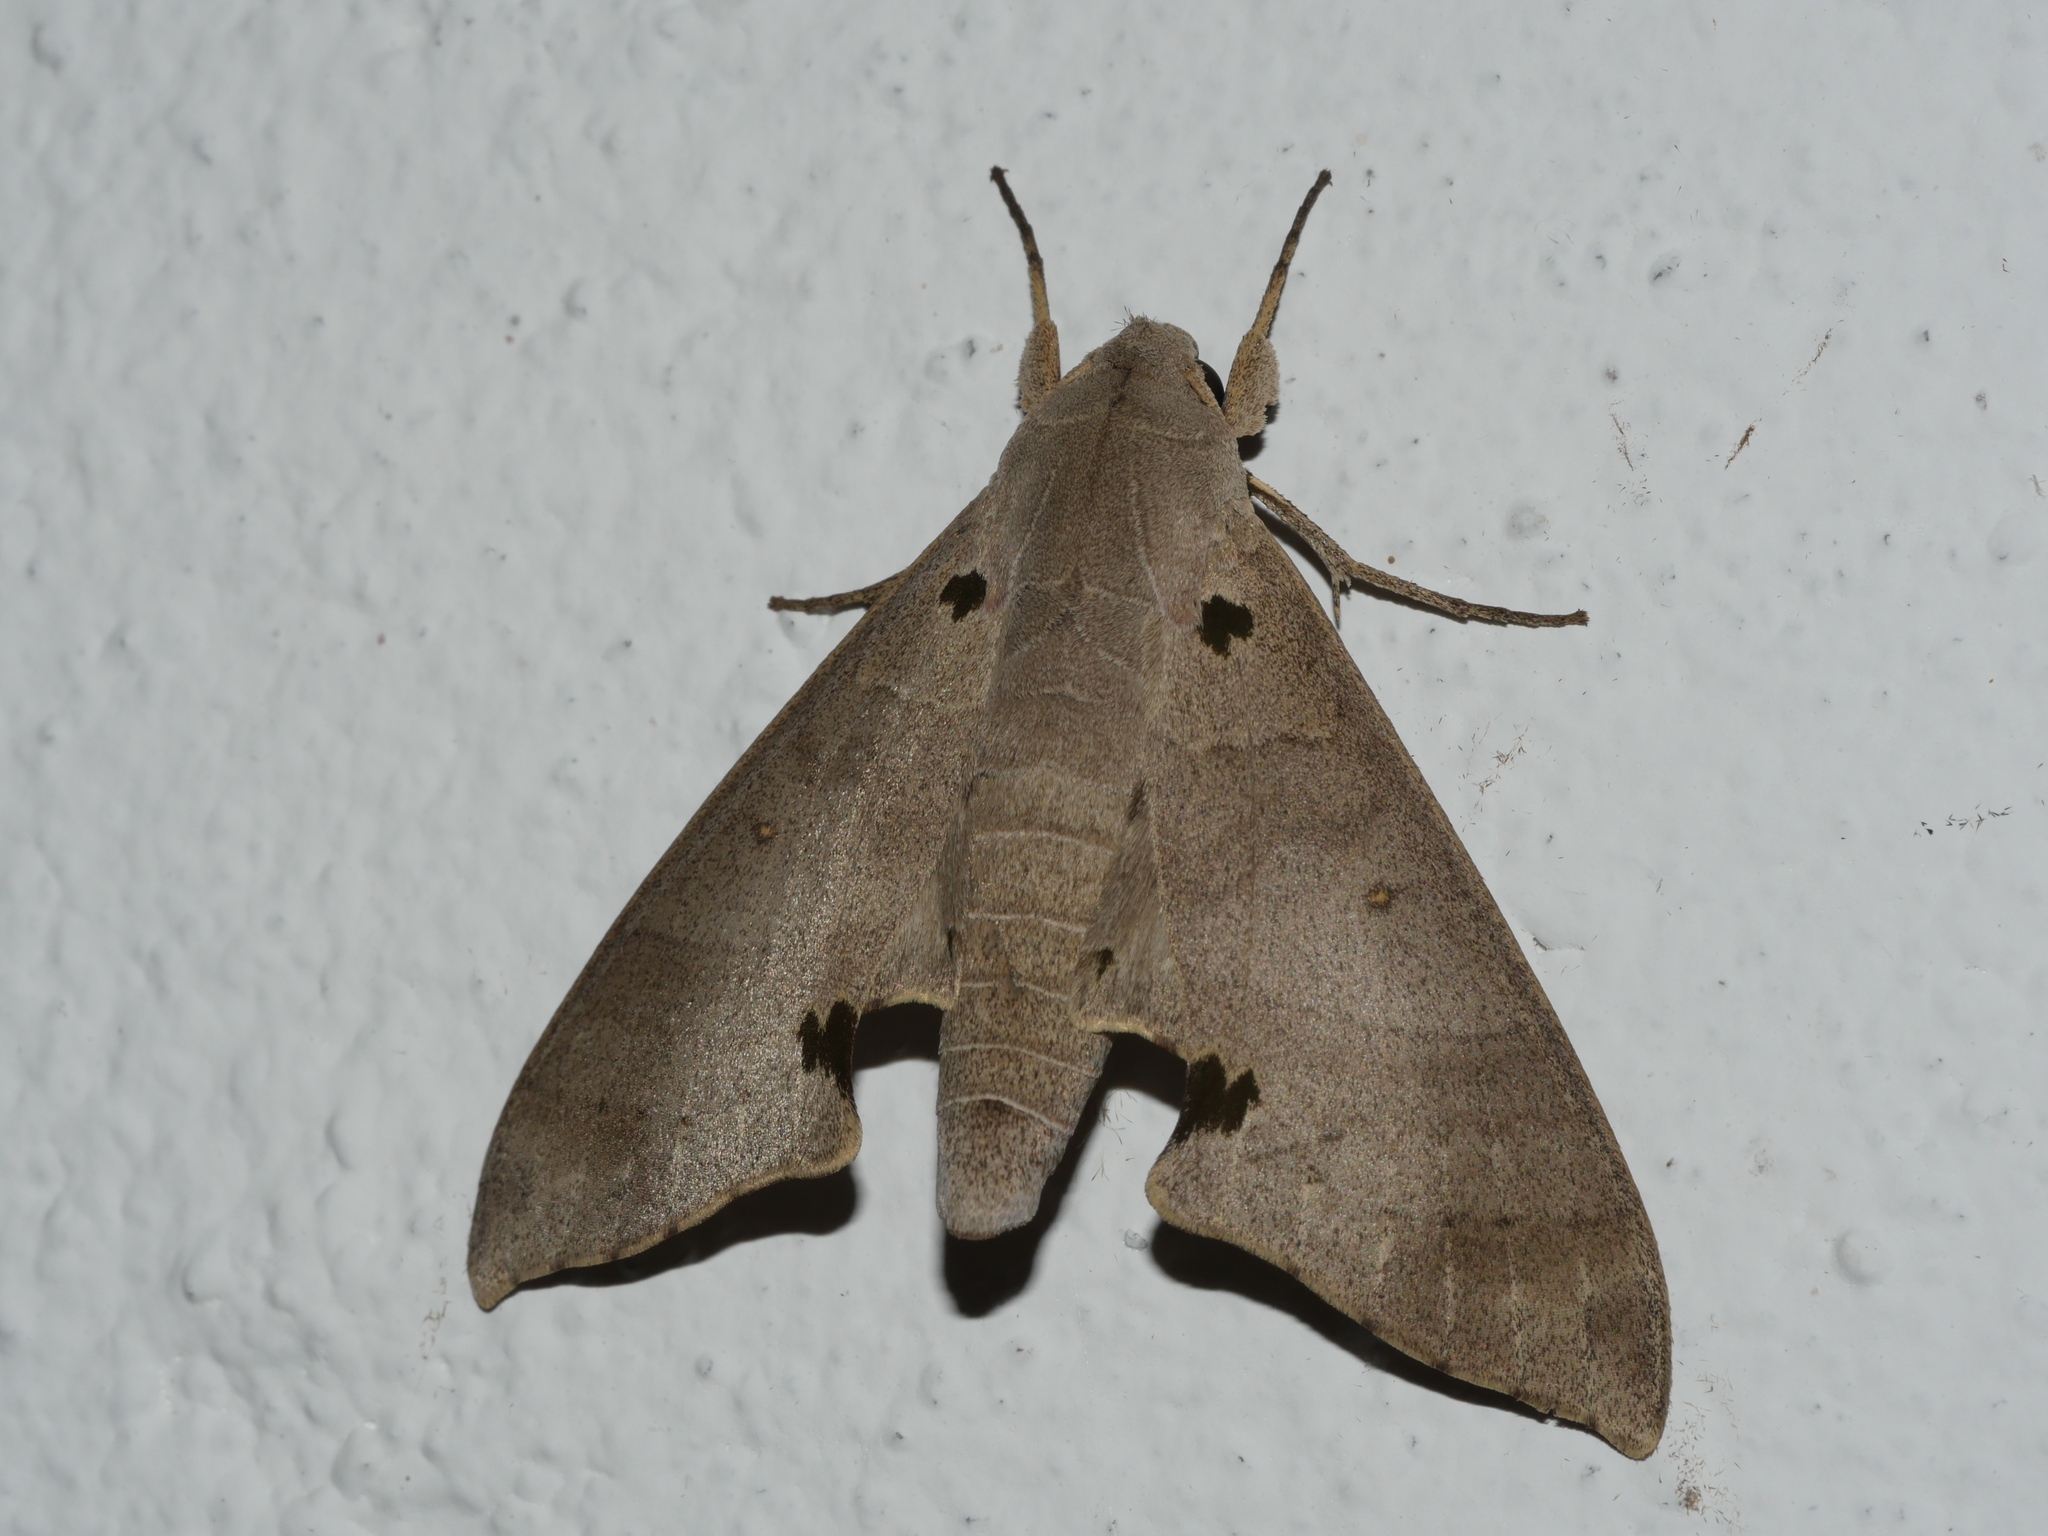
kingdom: Animalia
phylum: Arthropoda
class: Insecta
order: Lepidoptera
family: Sphingidae
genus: Polyptychus
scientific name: Polyptychus carteri
